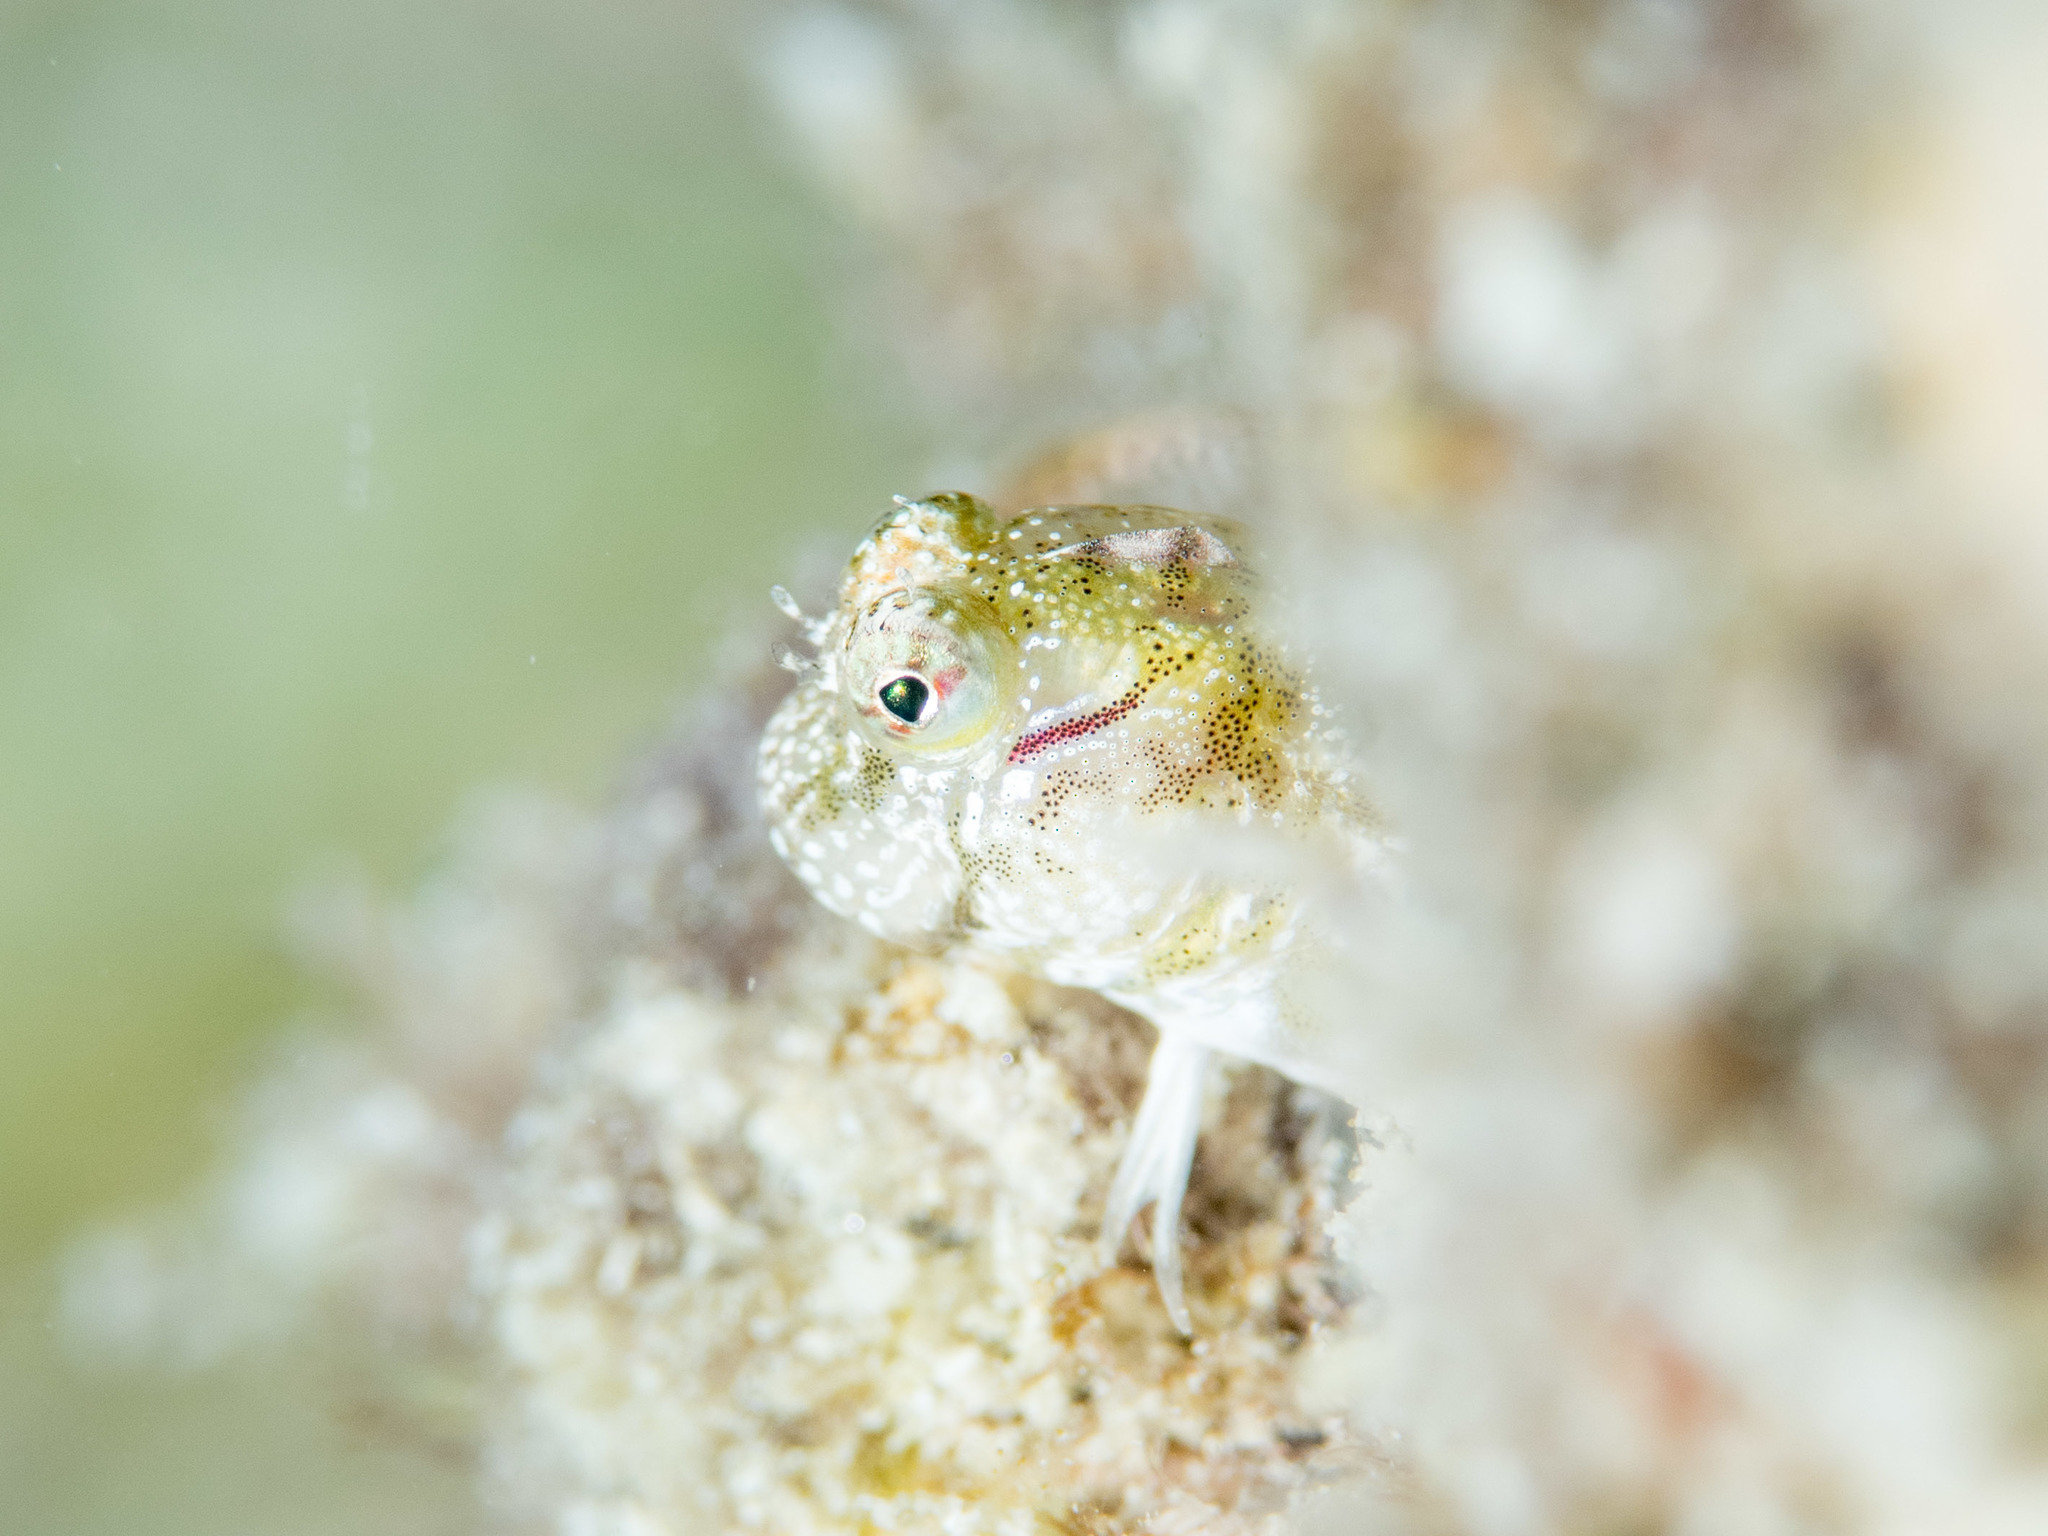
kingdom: Animalia
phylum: Chordata
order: Perciformes
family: Blenniidae
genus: Glyptoparus
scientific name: Glyptoparus delicatulus
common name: Delicate blenny
